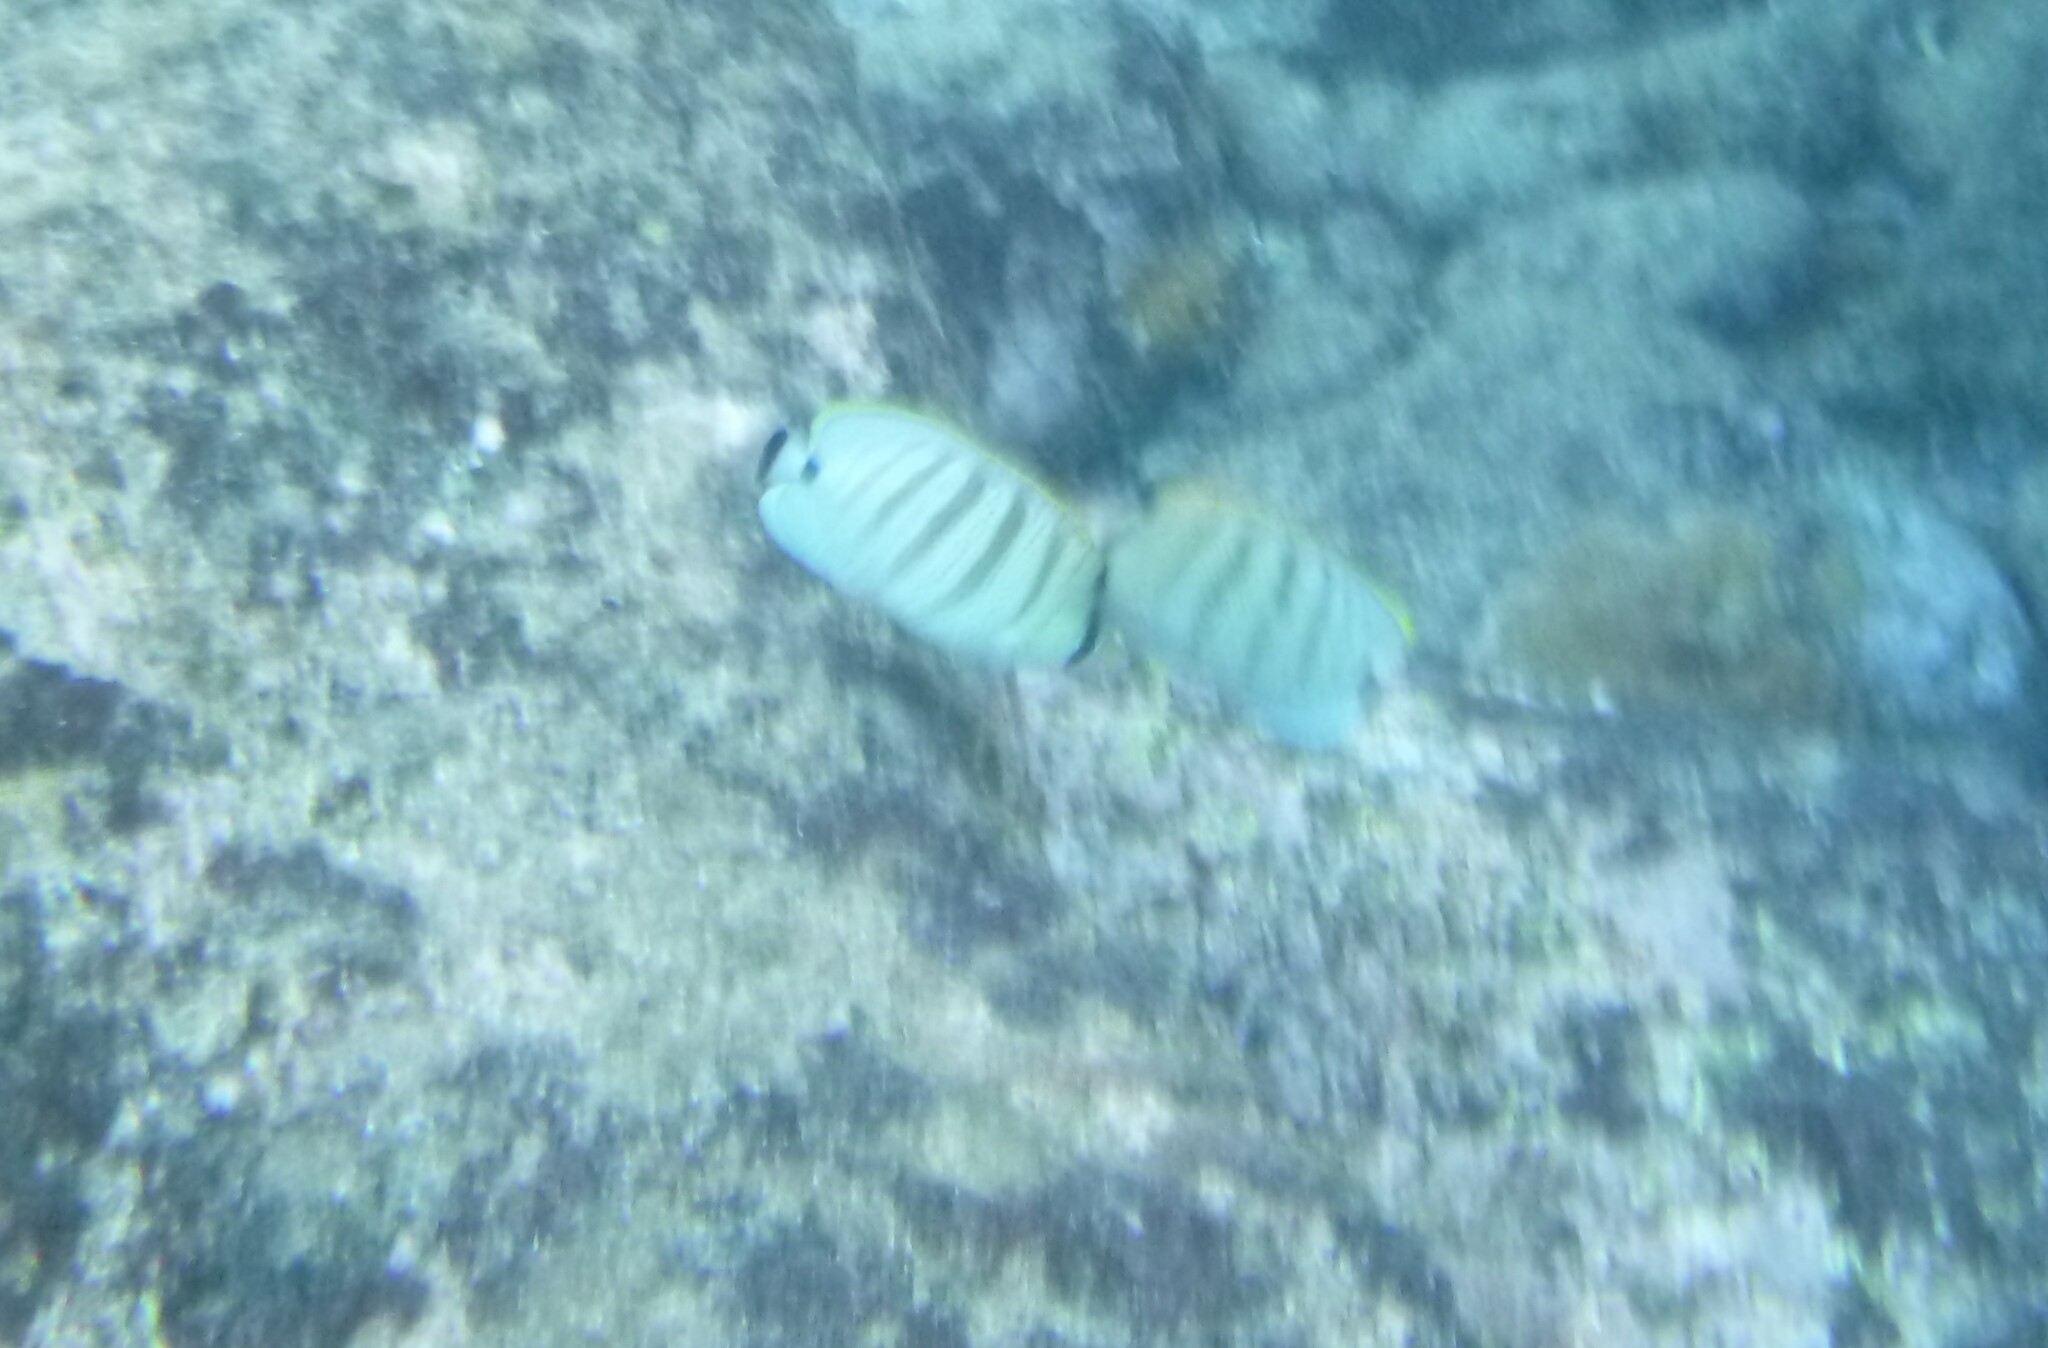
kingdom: Animalia
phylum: Chordata
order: Perciformes
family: Chaetodontidae
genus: Chaetodon
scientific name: Chaetodon multicinctus
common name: Multiband butterflyfish
